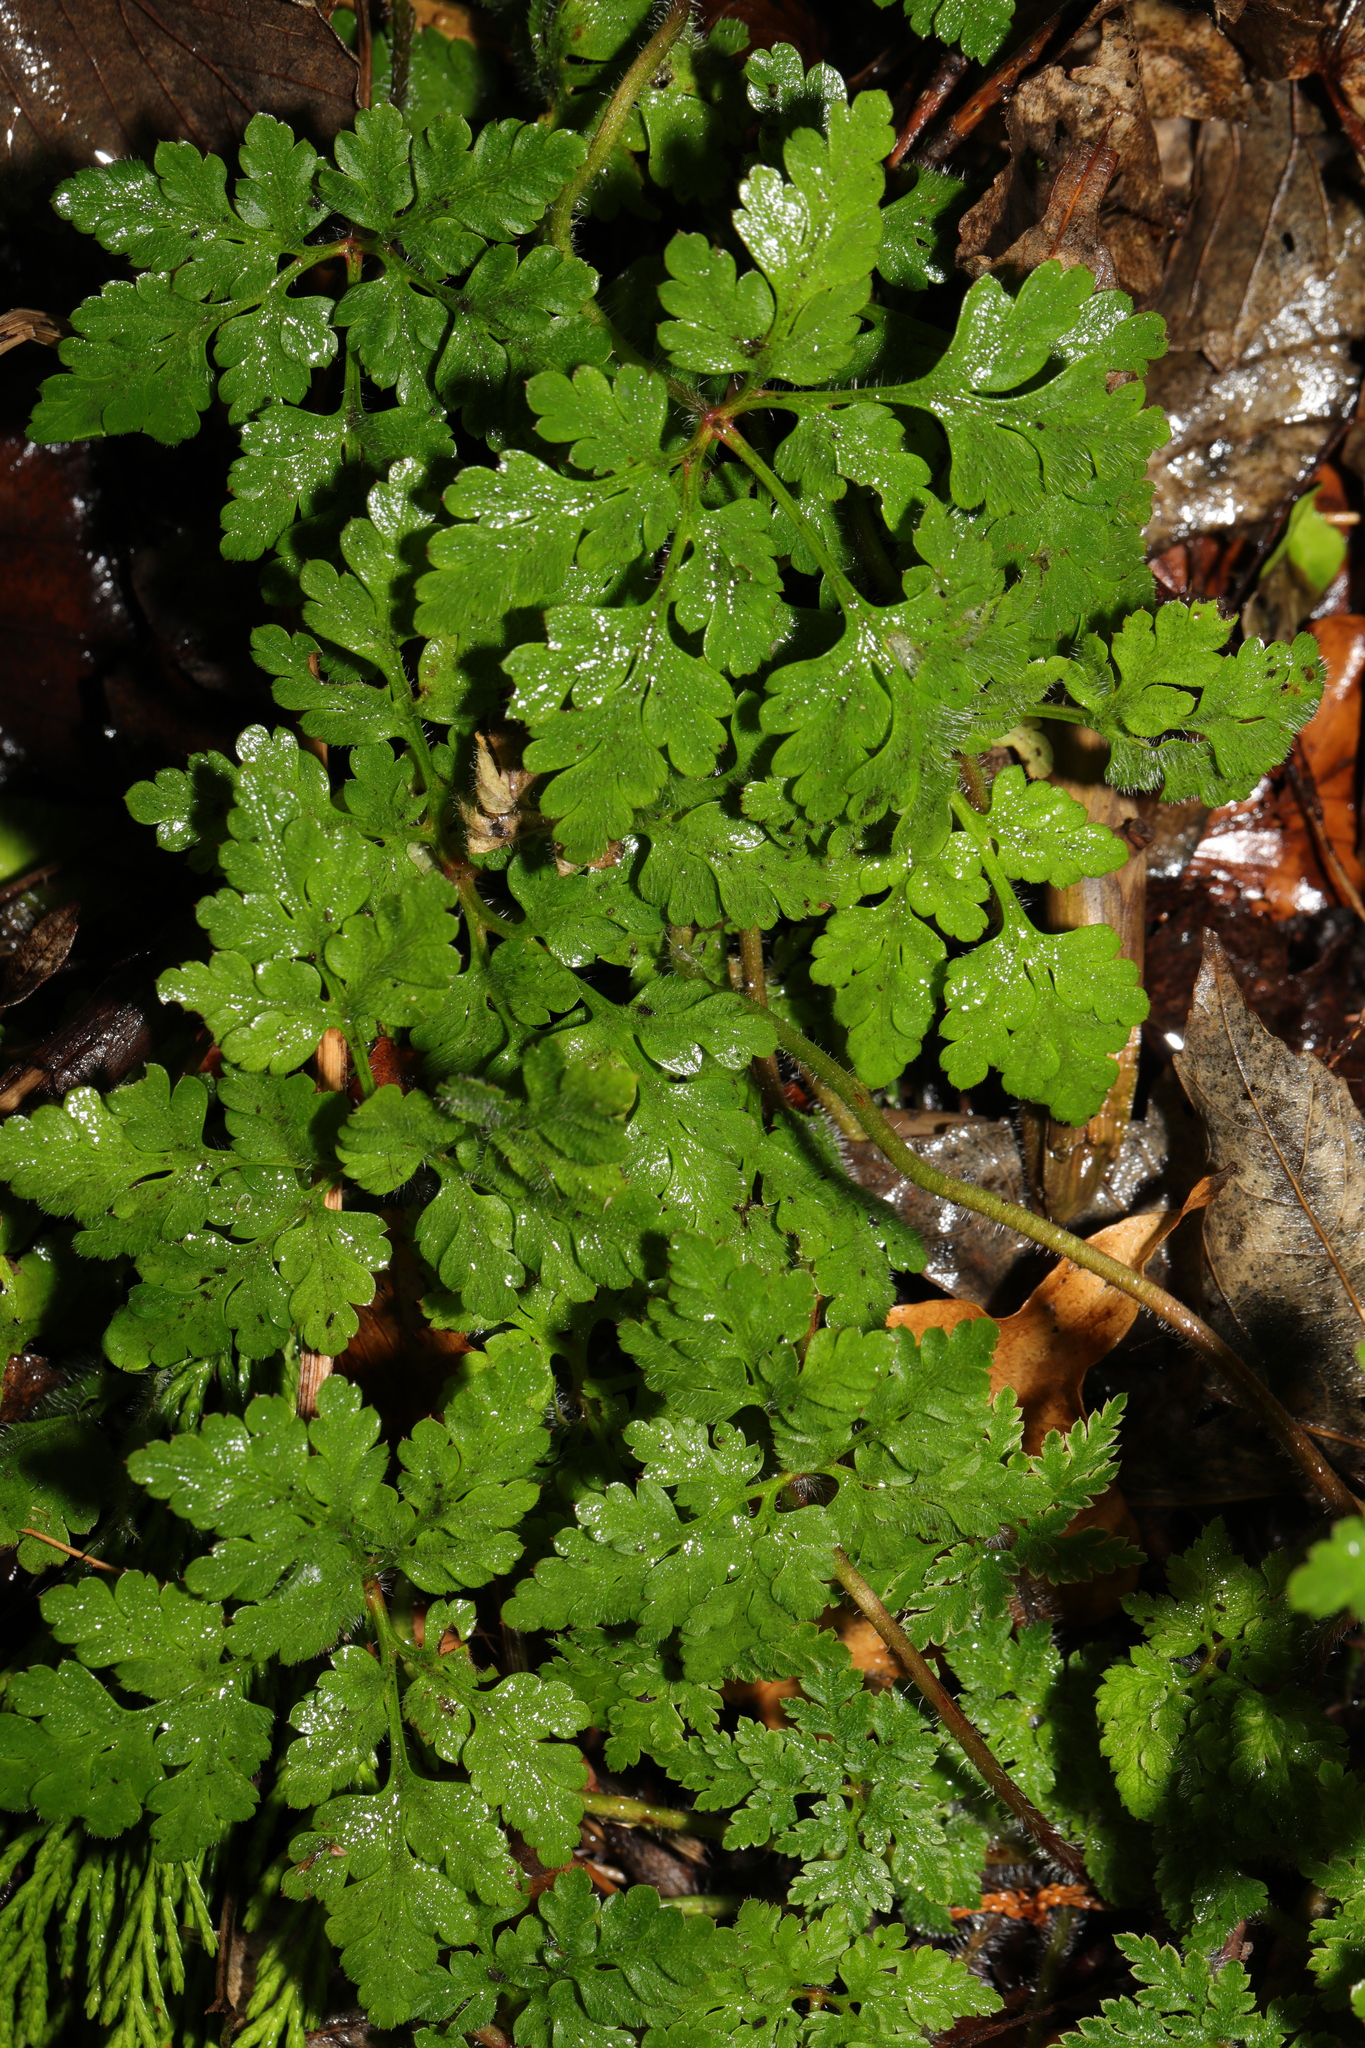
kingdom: Plantae
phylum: Tracheophyta
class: Magnoliopsida
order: Geraniales
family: Geraniaceae
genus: Geranium
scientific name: Geranium robertianum
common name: Herb-robert
